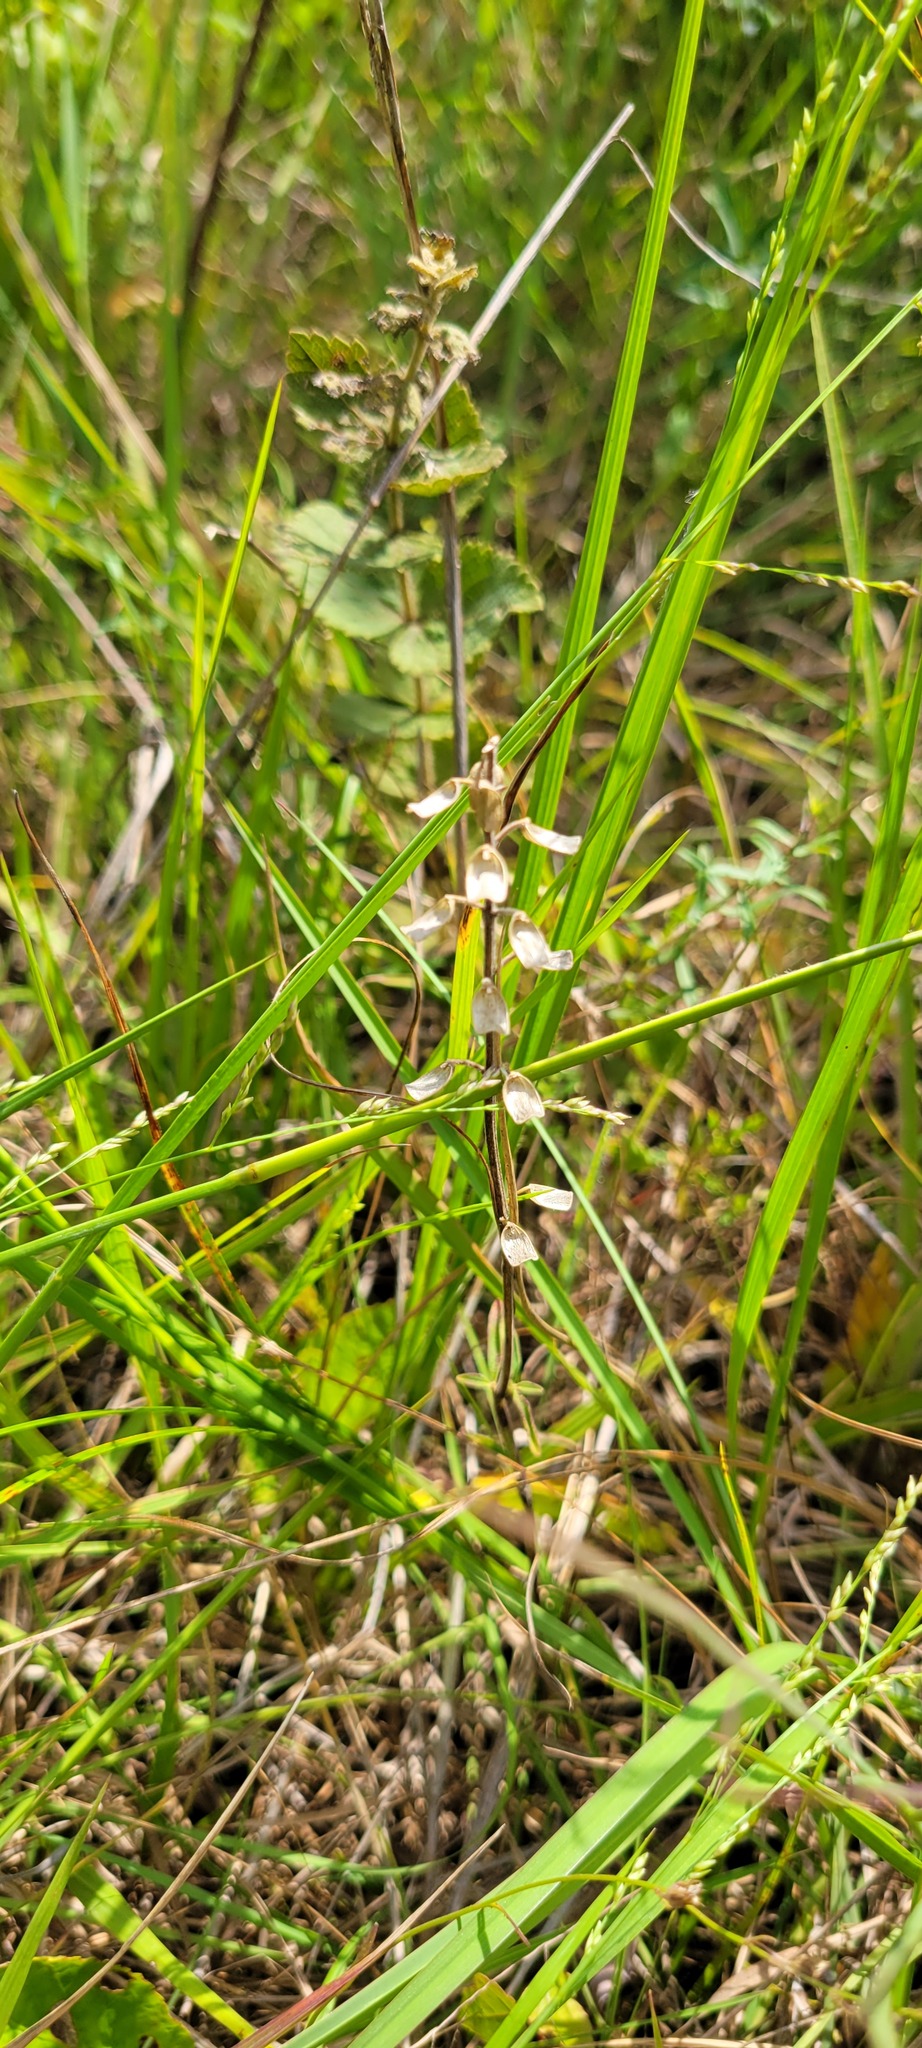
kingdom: Plantae
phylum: Tracheophyta
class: Magnoliopsida
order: Lamiales
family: Lamiaceae
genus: Scutellaria
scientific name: Scutellaria integrifolia
